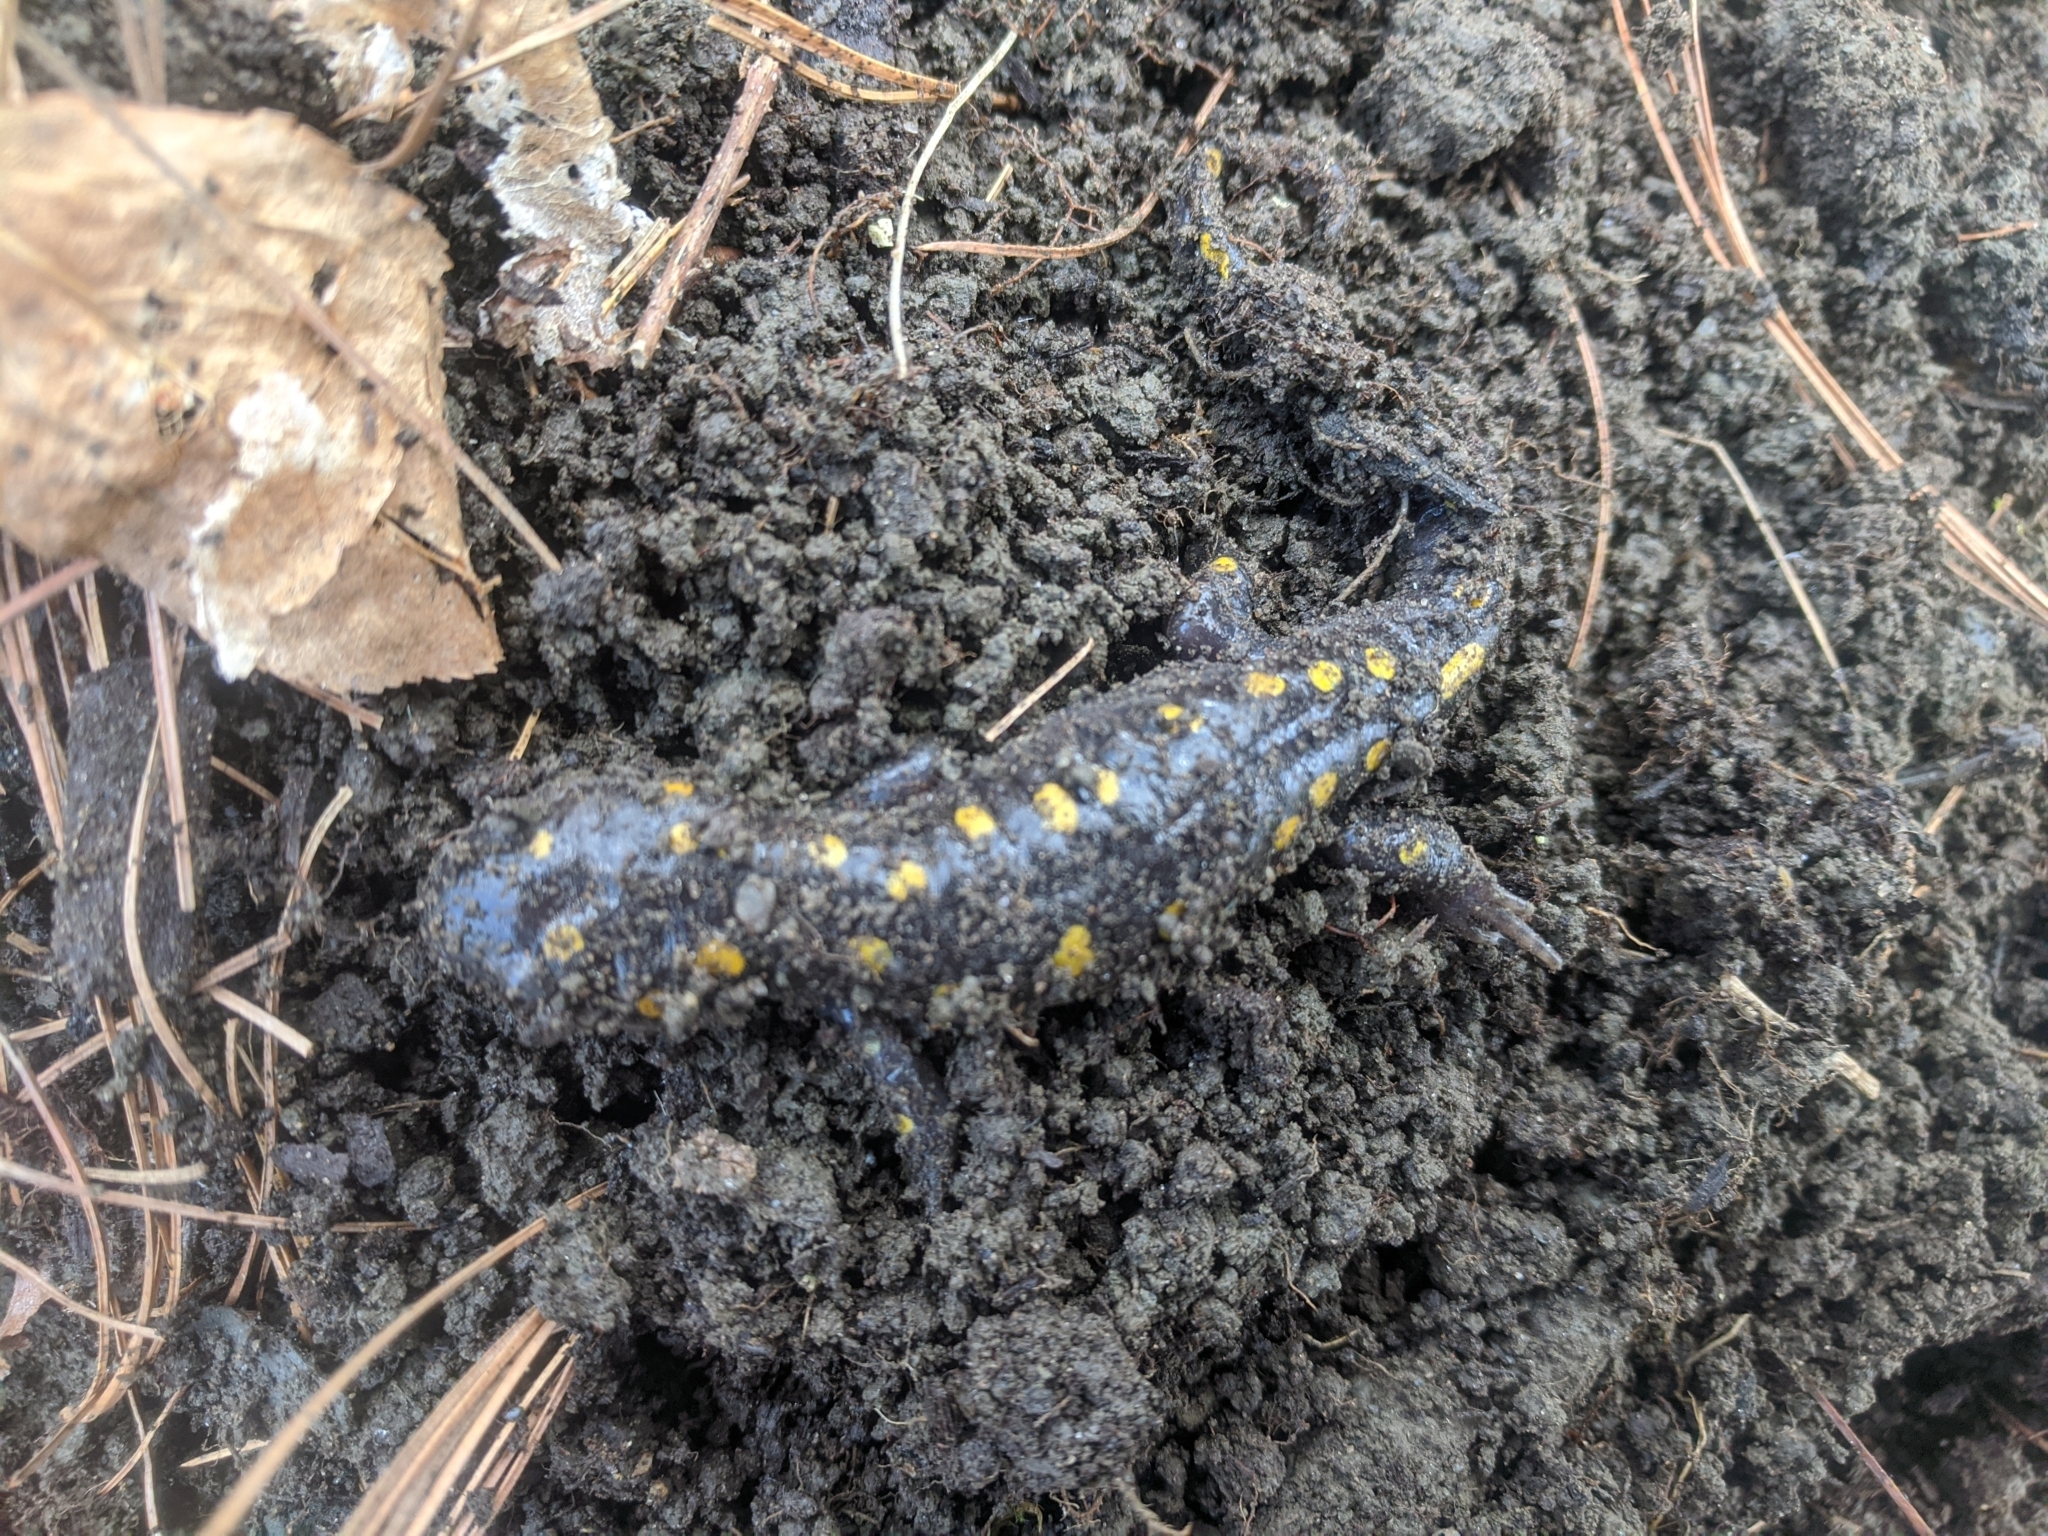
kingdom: Animalia
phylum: Chordata
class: Amphibia
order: Caudata
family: Ambystomatidae
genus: Ambystoma
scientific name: Ambystoma maculatum
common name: Spotted salamander
